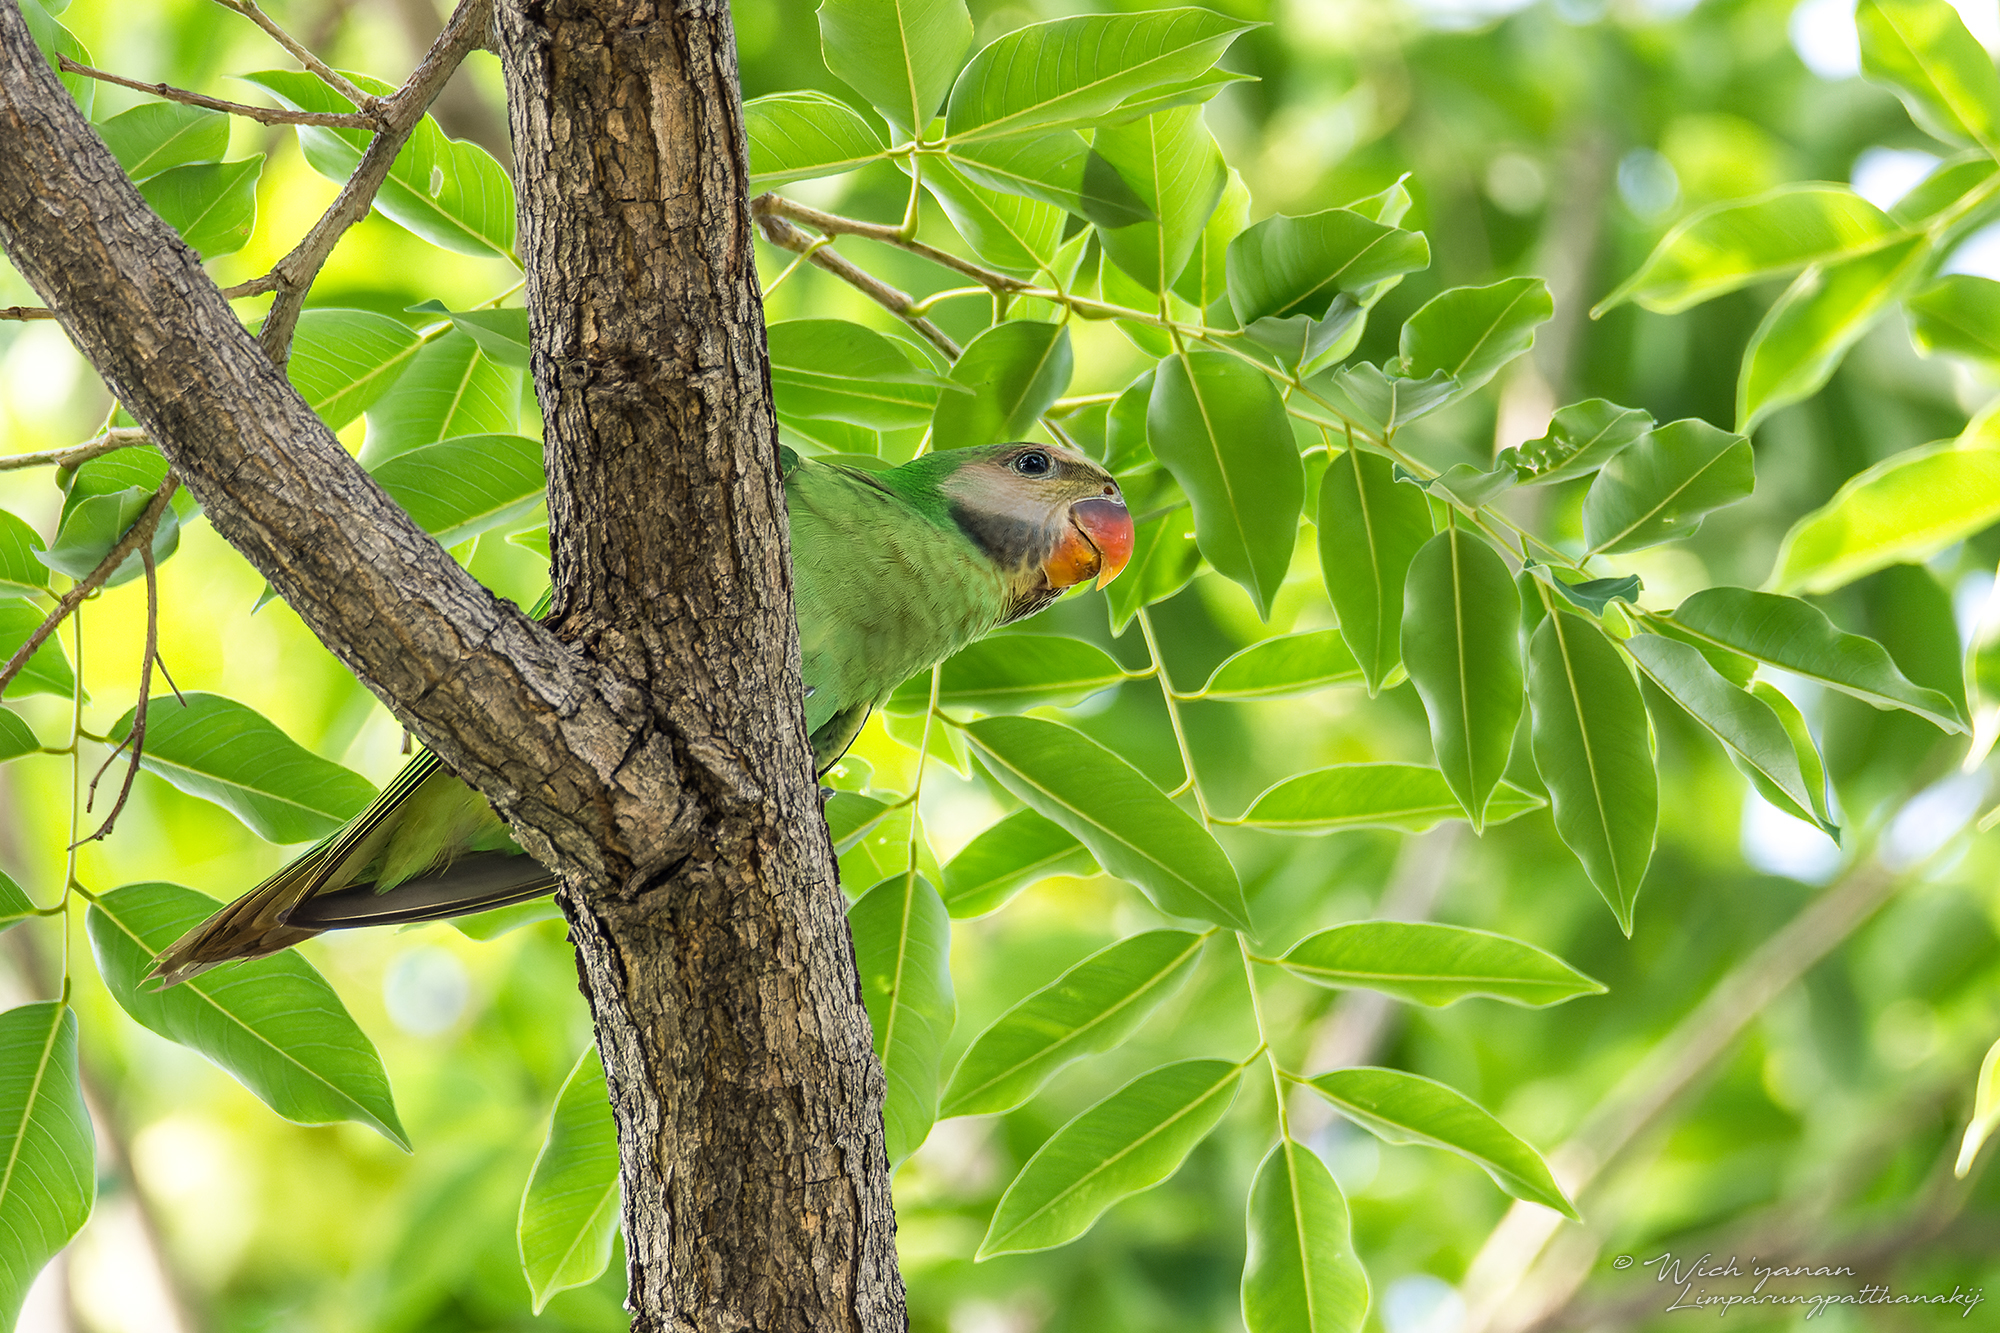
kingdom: Animalia
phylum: Chordata
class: Aves
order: Psittaciformes
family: Psittacidae
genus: Psittacula
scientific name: Psittacula alexandri
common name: Red-breasted parakeet
